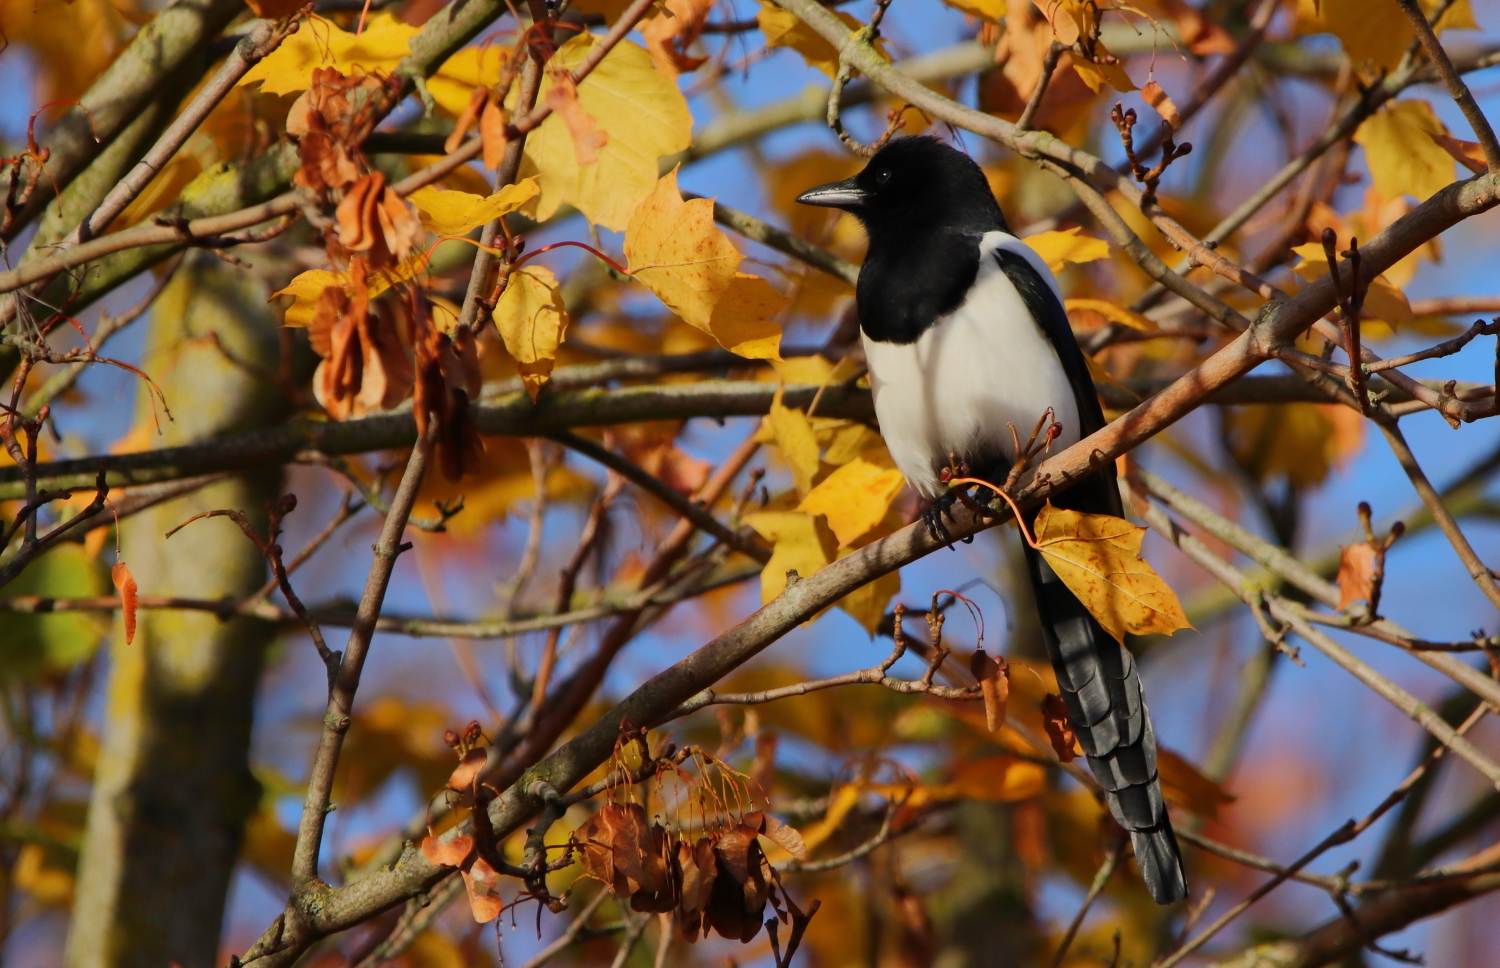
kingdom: Animalia
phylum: Chordata
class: Aves
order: Passeriformes
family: Corvidae
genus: Pica
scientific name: Pica pica
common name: Eurasian magpie
